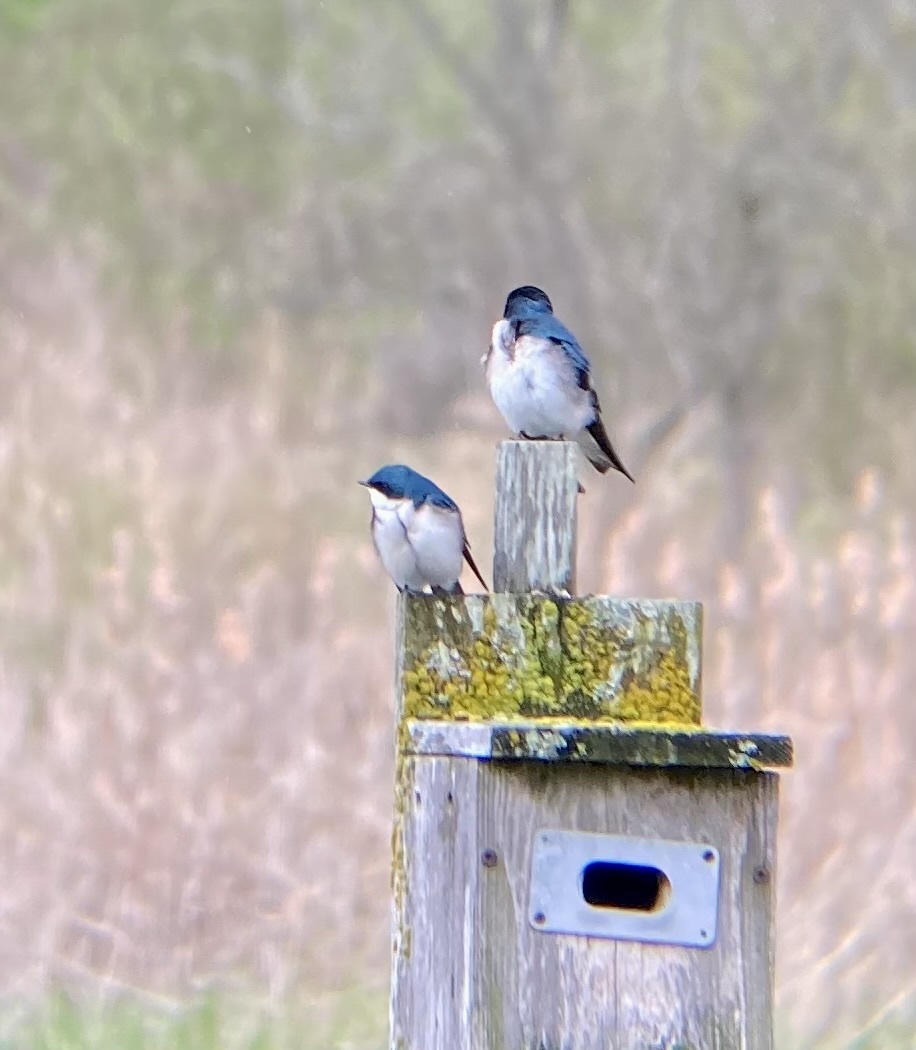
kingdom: Animalia
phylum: Chordata
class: Aves
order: Passeriformes
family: Hirundinidae
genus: Tachycineta
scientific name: Tachycineta bicolor
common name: Tree swallow
